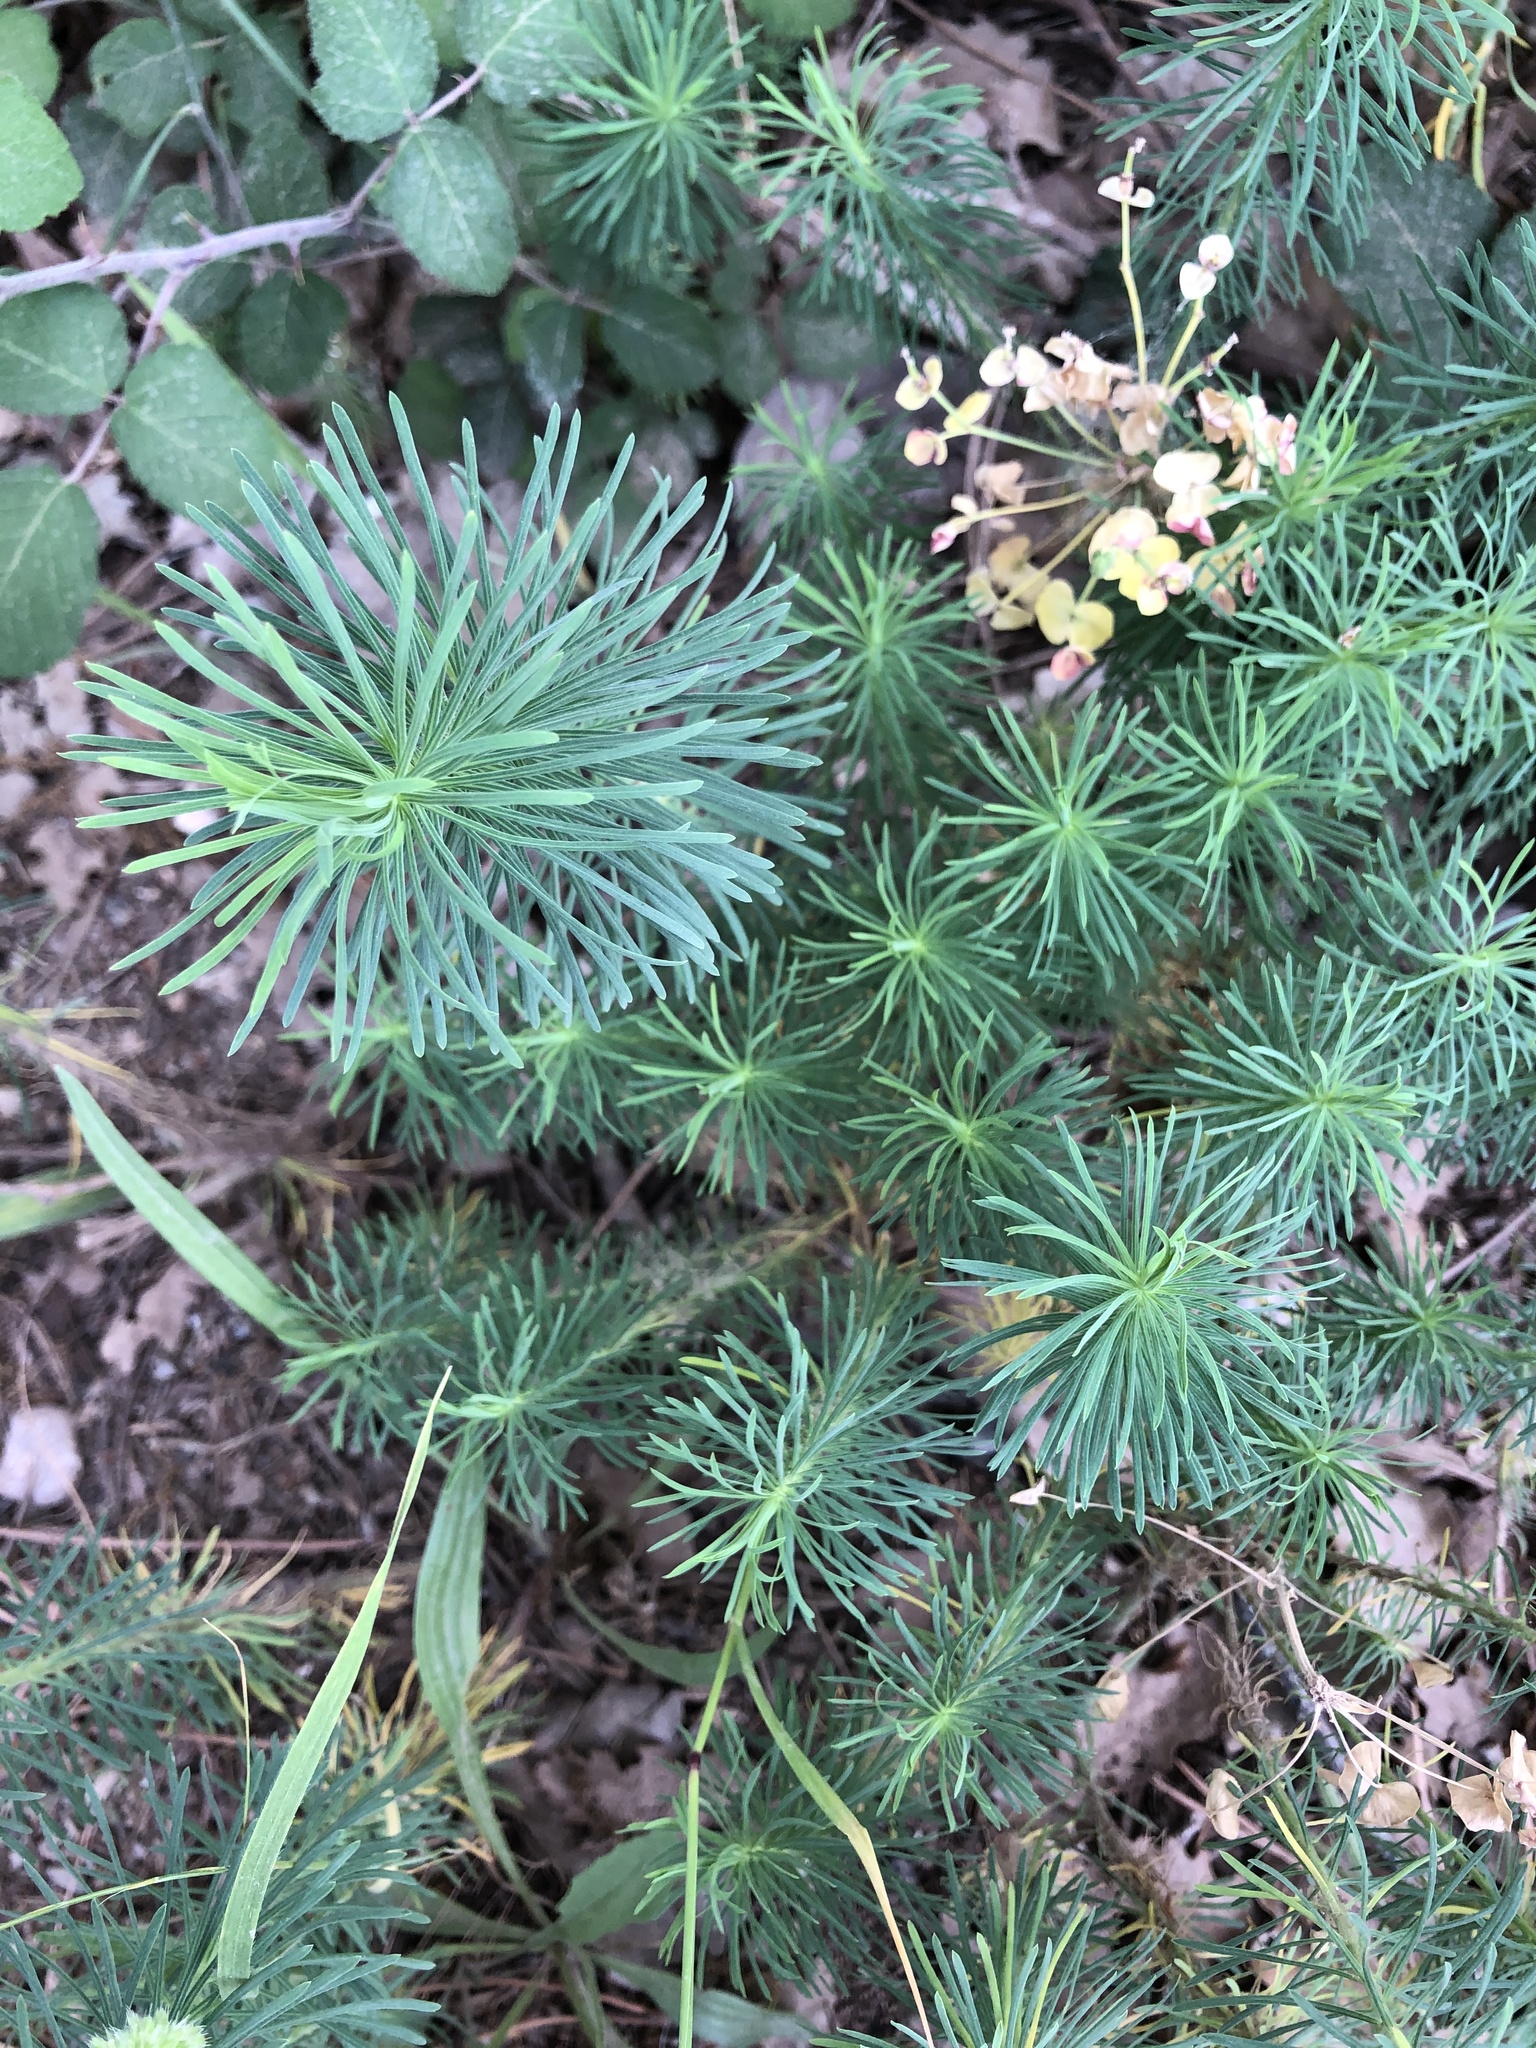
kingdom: Plantae
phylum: Tracheophyta
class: Magnoliopsida
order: Malpighiales
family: Euphorbiaceae
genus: Euphorbia
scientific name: Euphorbia cyparissias
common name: Cypress spurge
